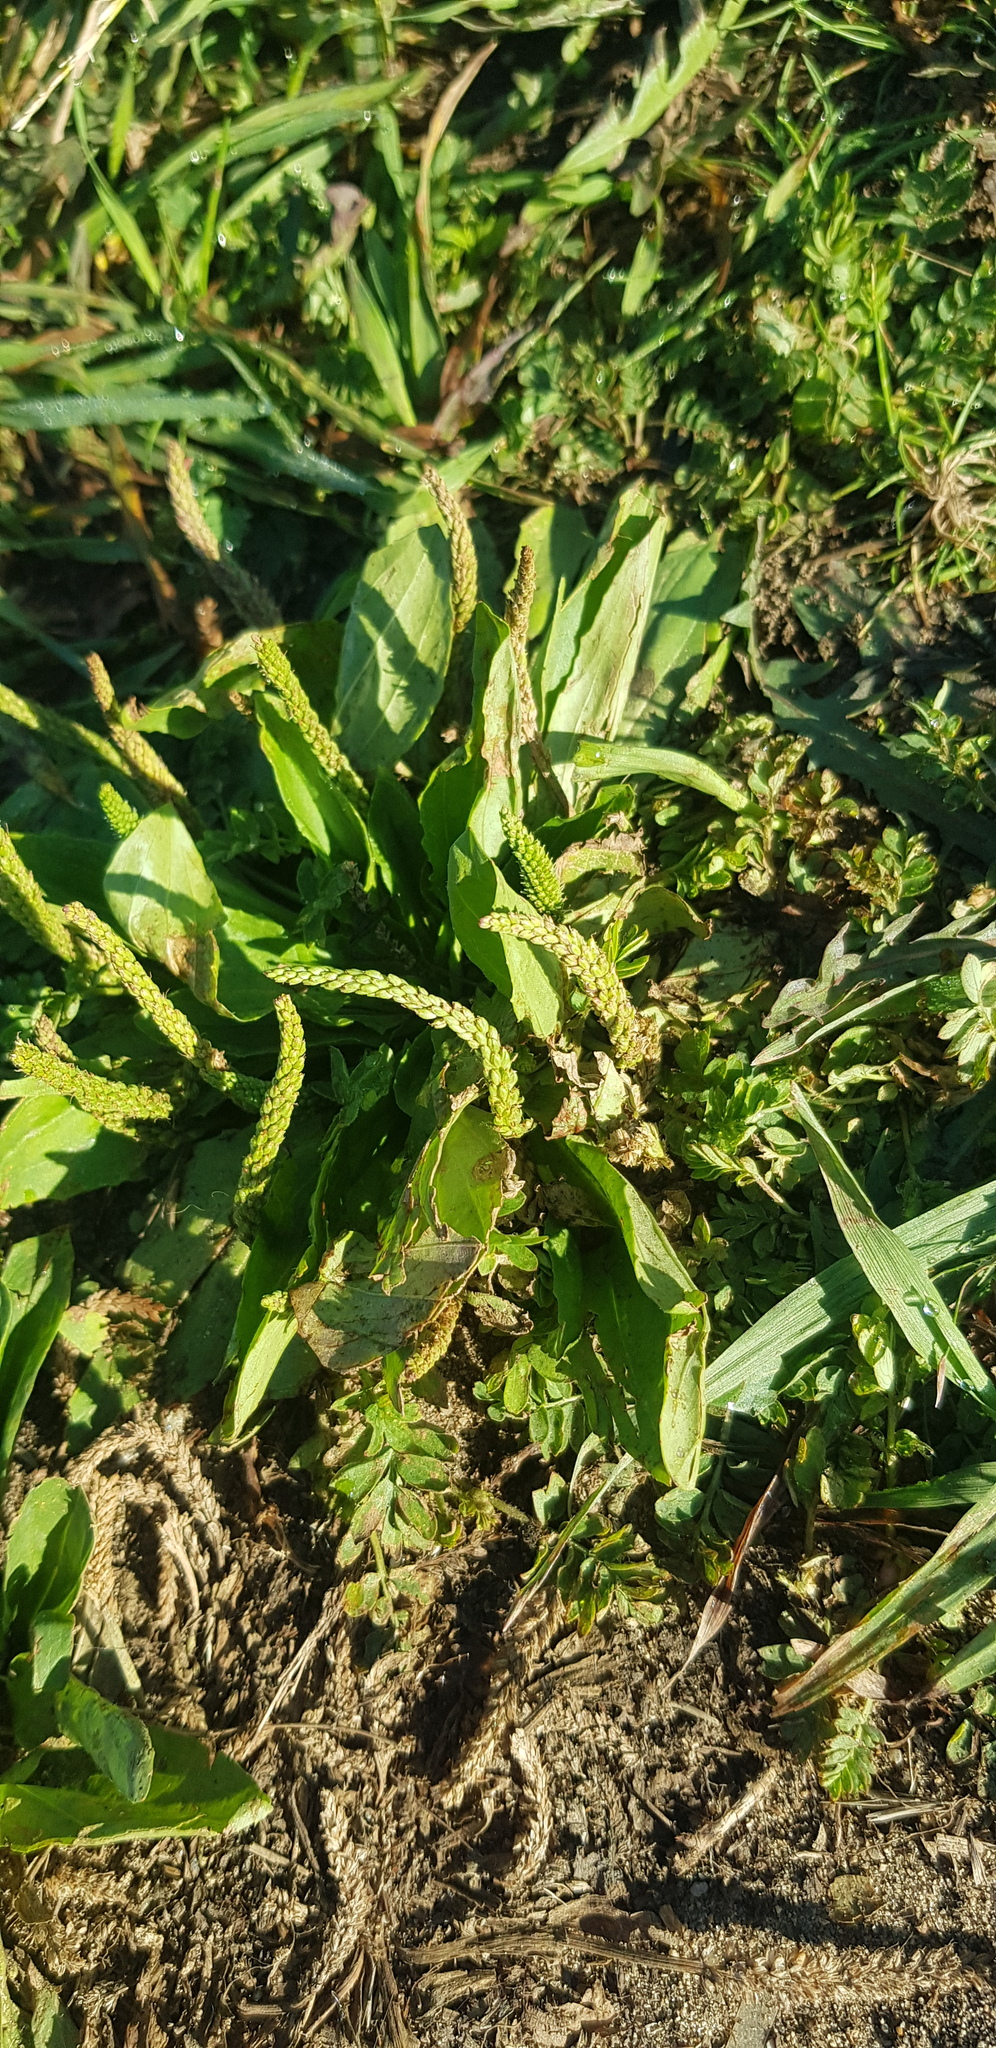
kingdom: Plantae
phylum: Tracheophyta
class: Magnoliopsida
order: Lamiales
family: Plantaginaceae
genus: Plantago
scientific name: Plantago depressa
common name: Depressed plantain
